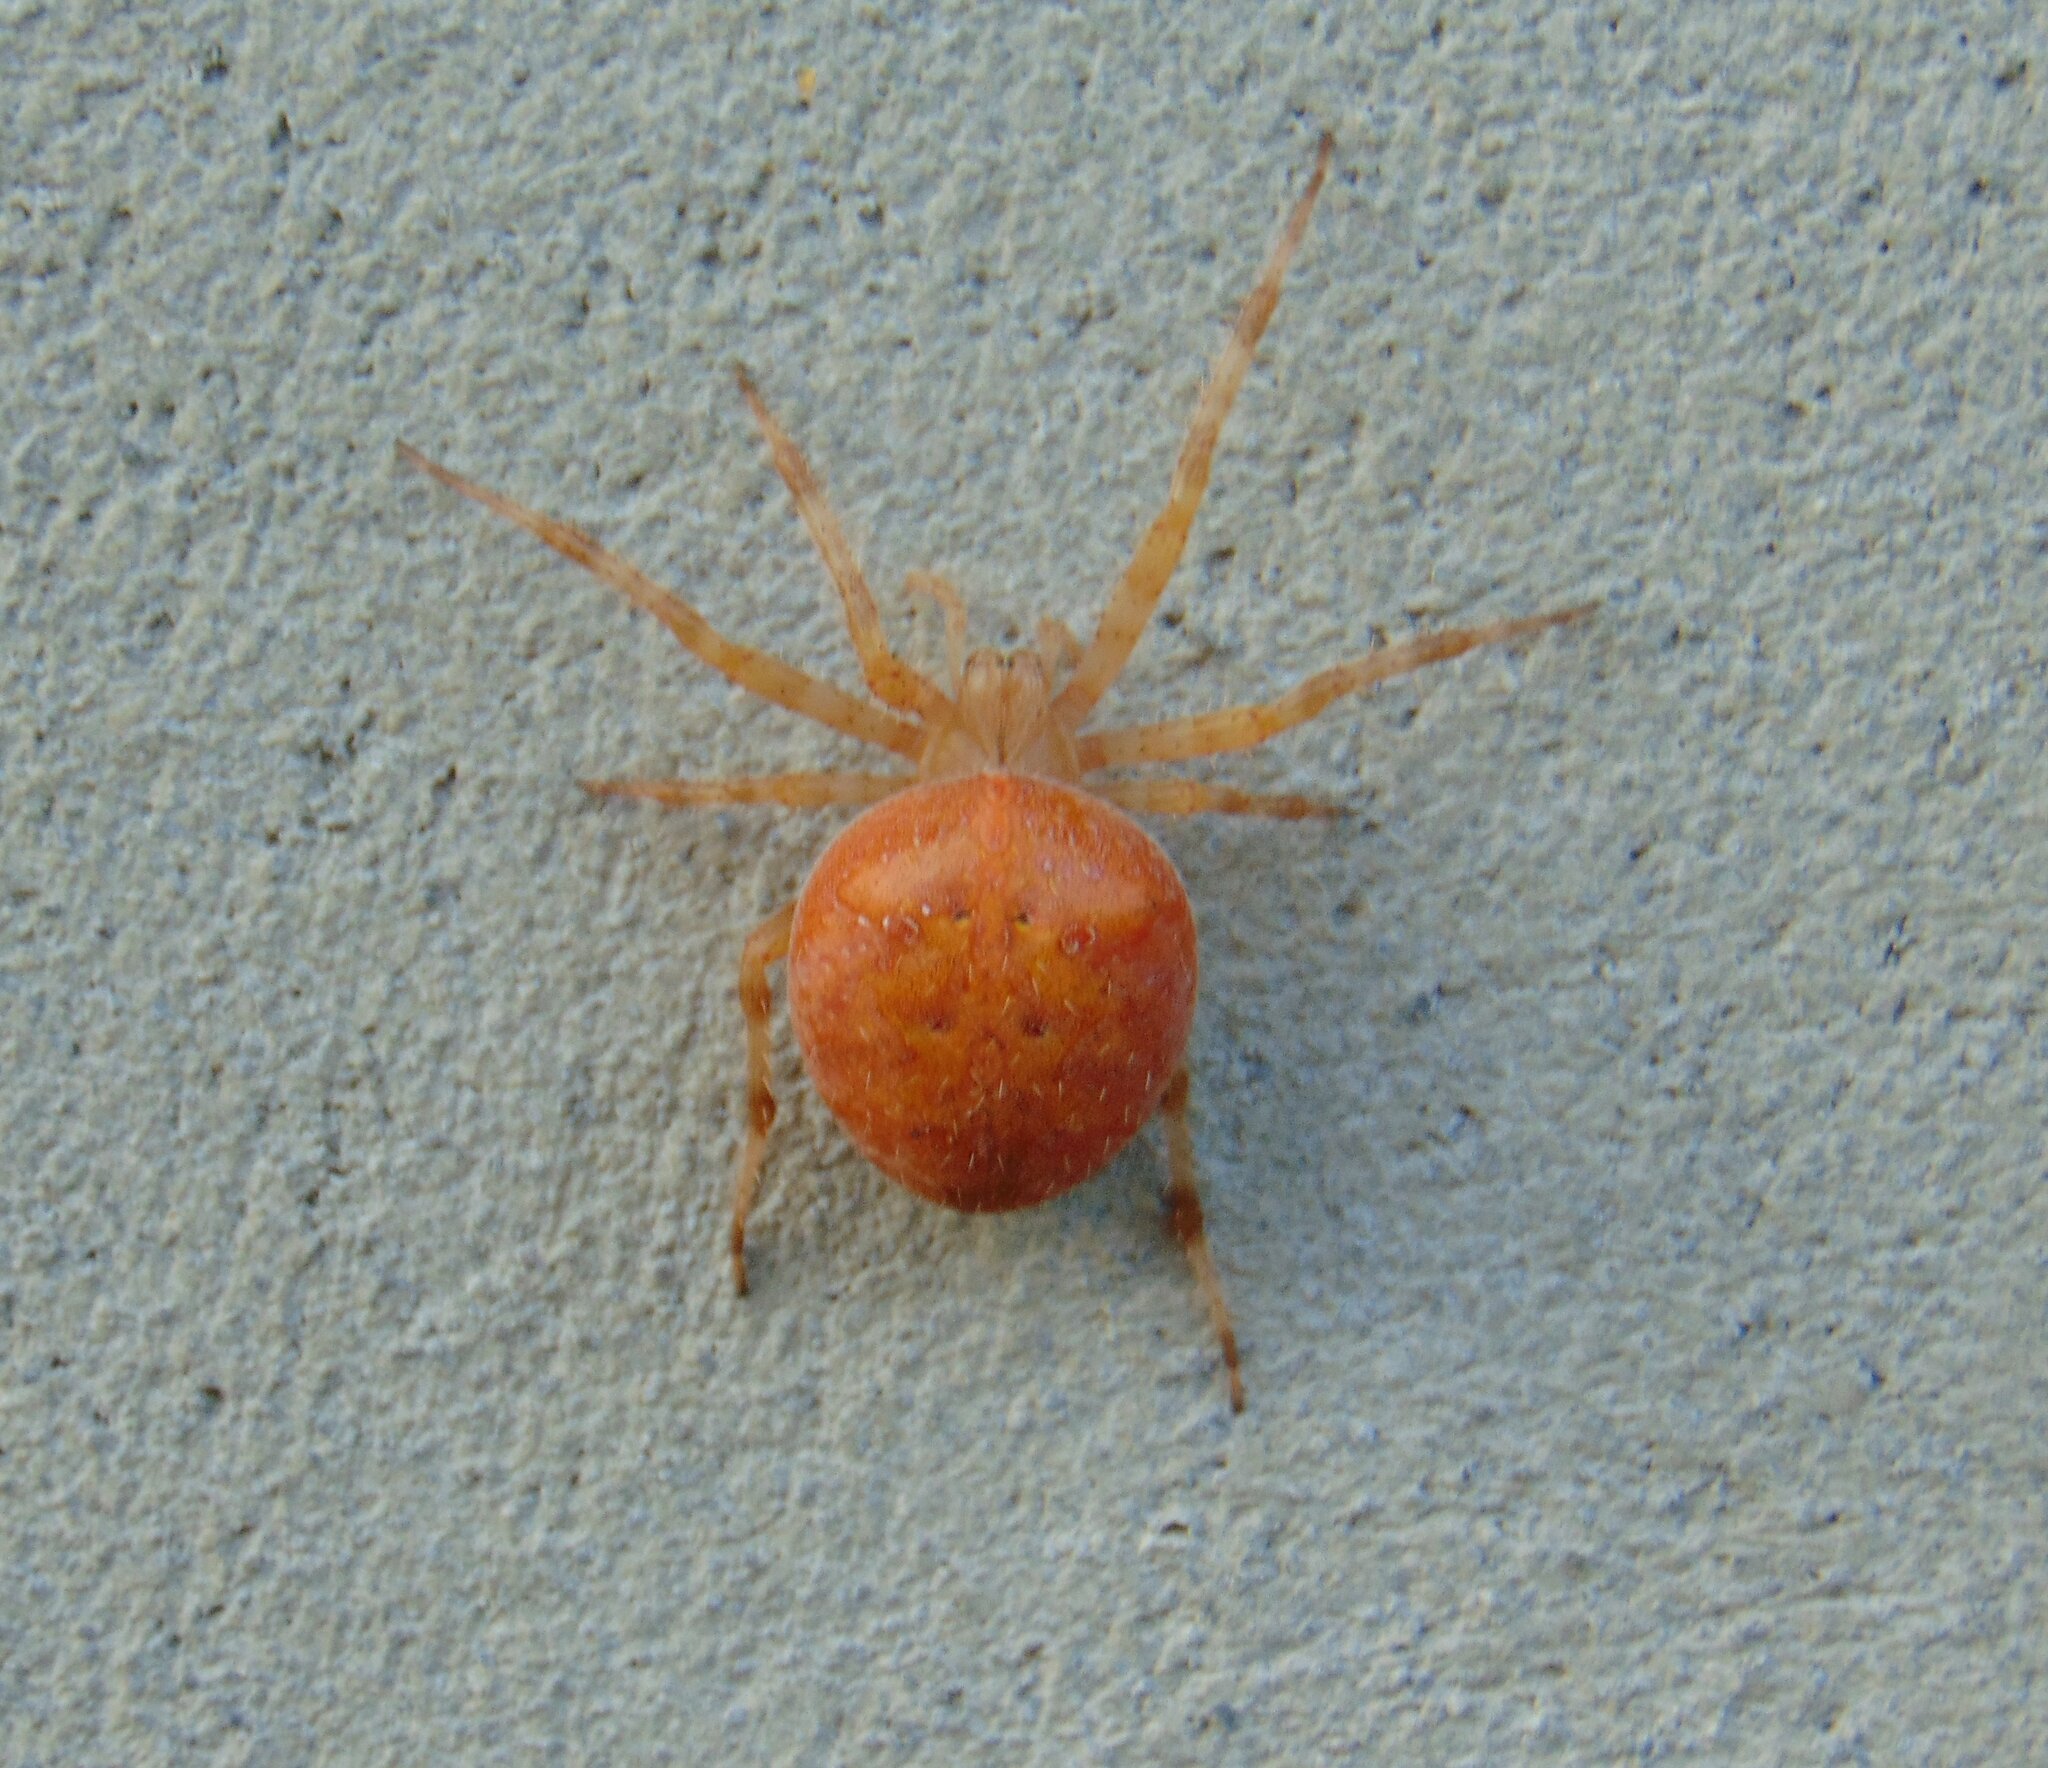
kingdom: Animalia
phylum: Arthropoda
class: Arachnida
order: Araneae
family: Araneidae
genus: Araneus
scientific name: Araneus diadematus
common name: Cross orbweaver
